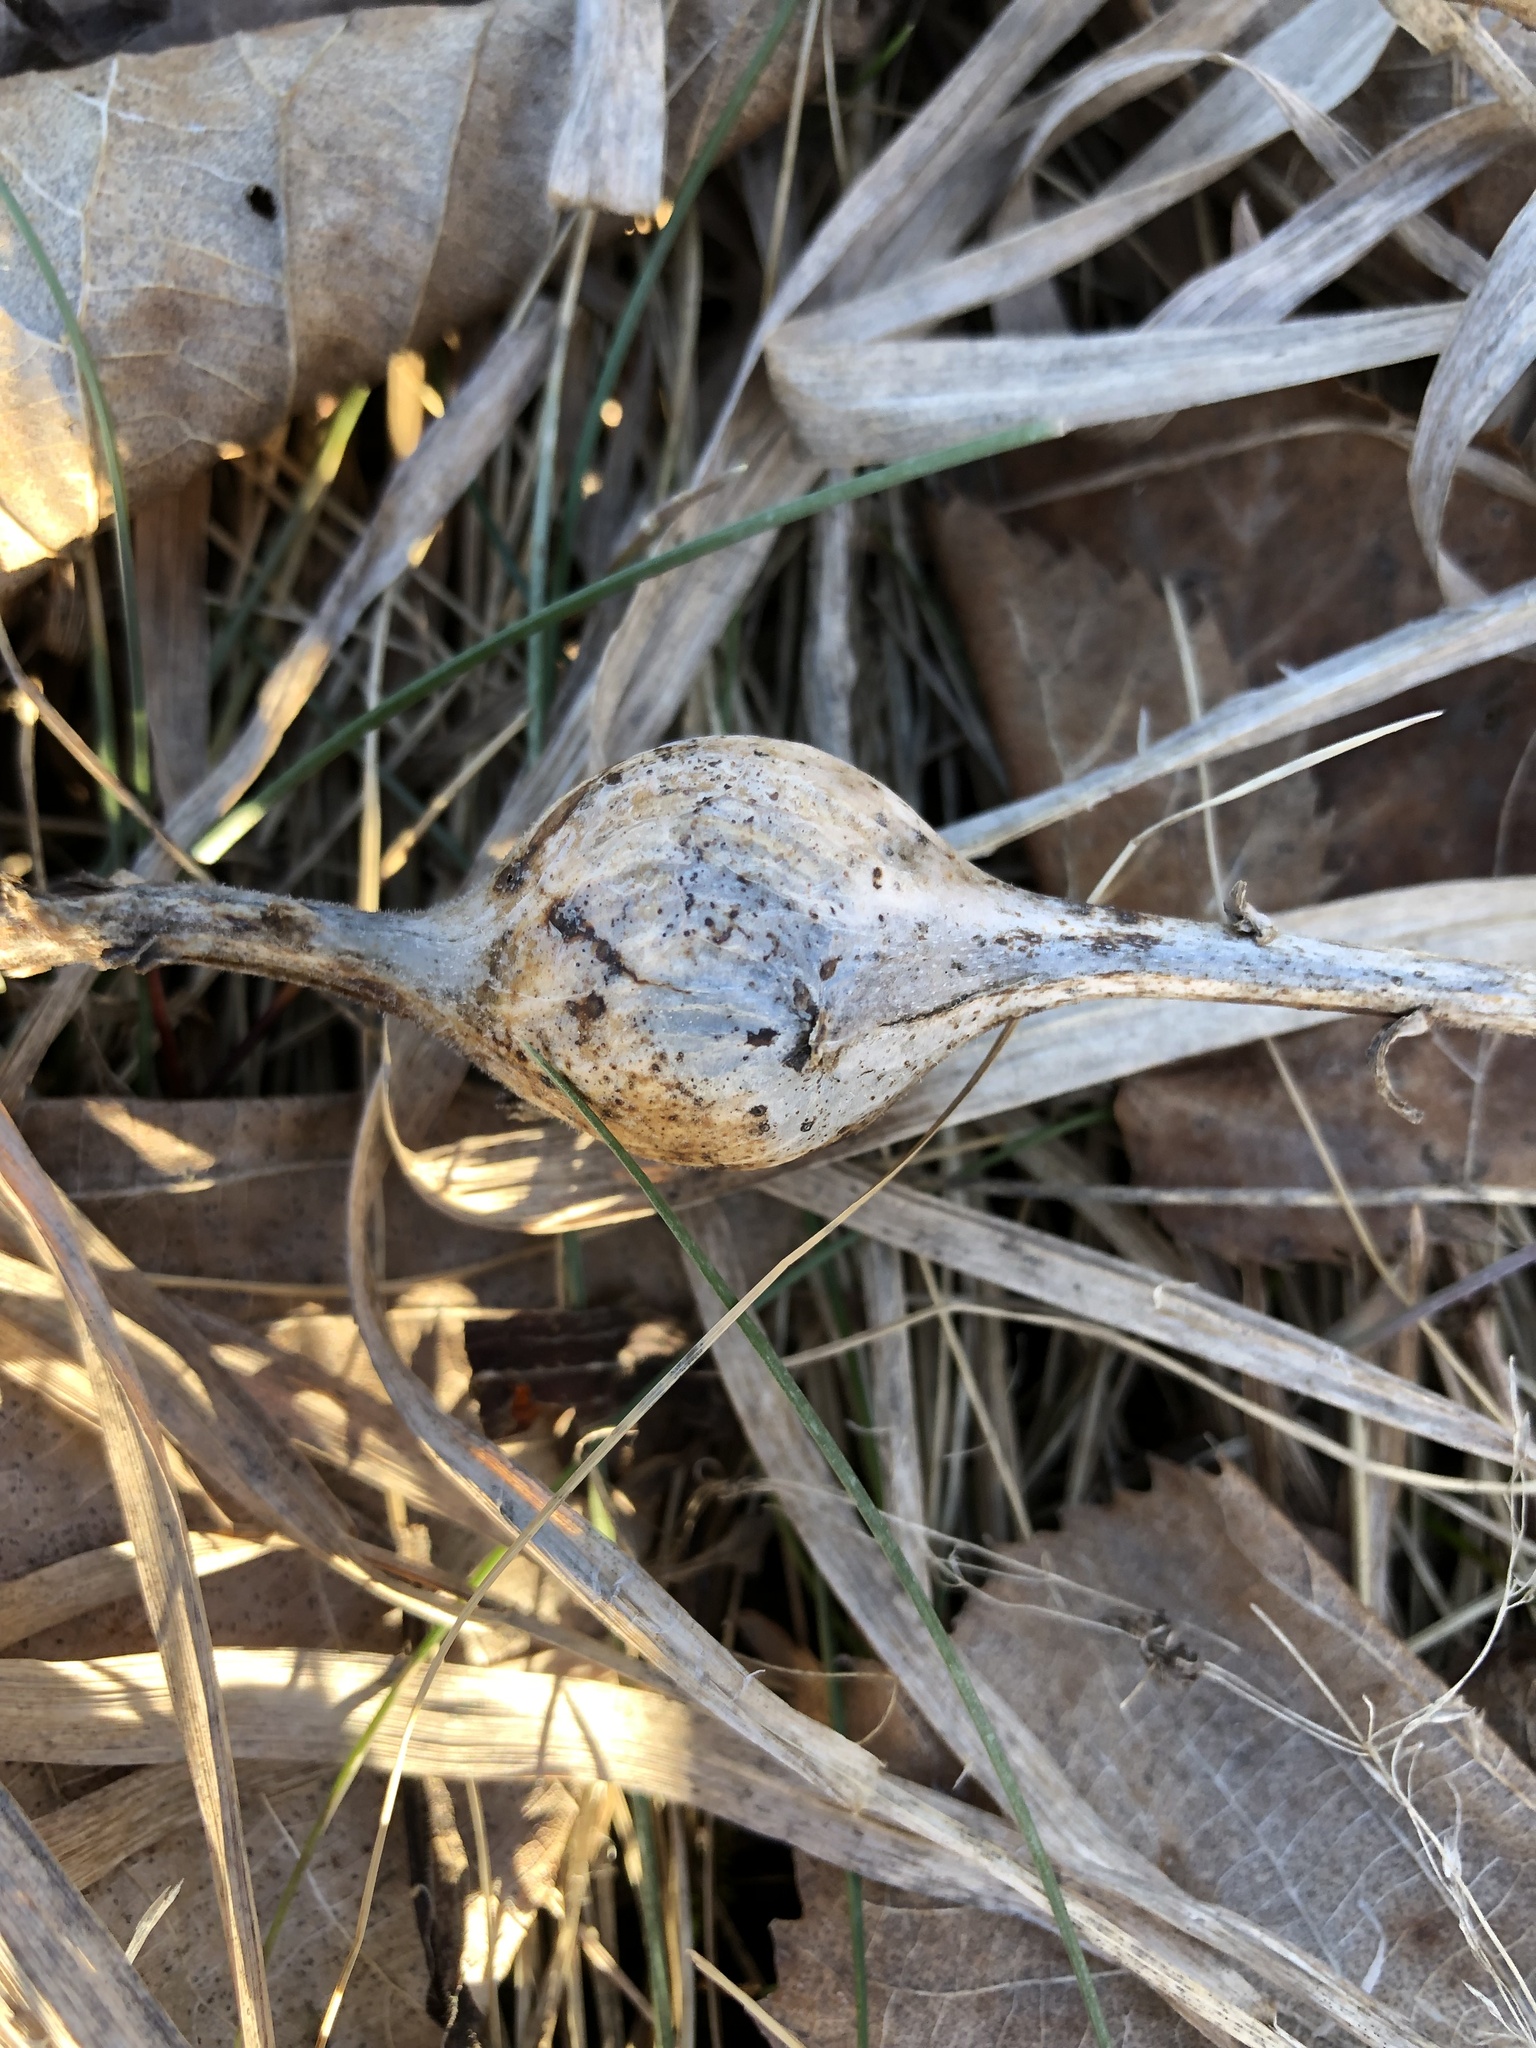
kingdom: Animalia
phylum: Arthropoda
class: Insecta
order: Diptera
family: Tephritidae
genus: Eurosta
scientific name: Eurosta solidaginis
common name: Goldenrod gall fly
